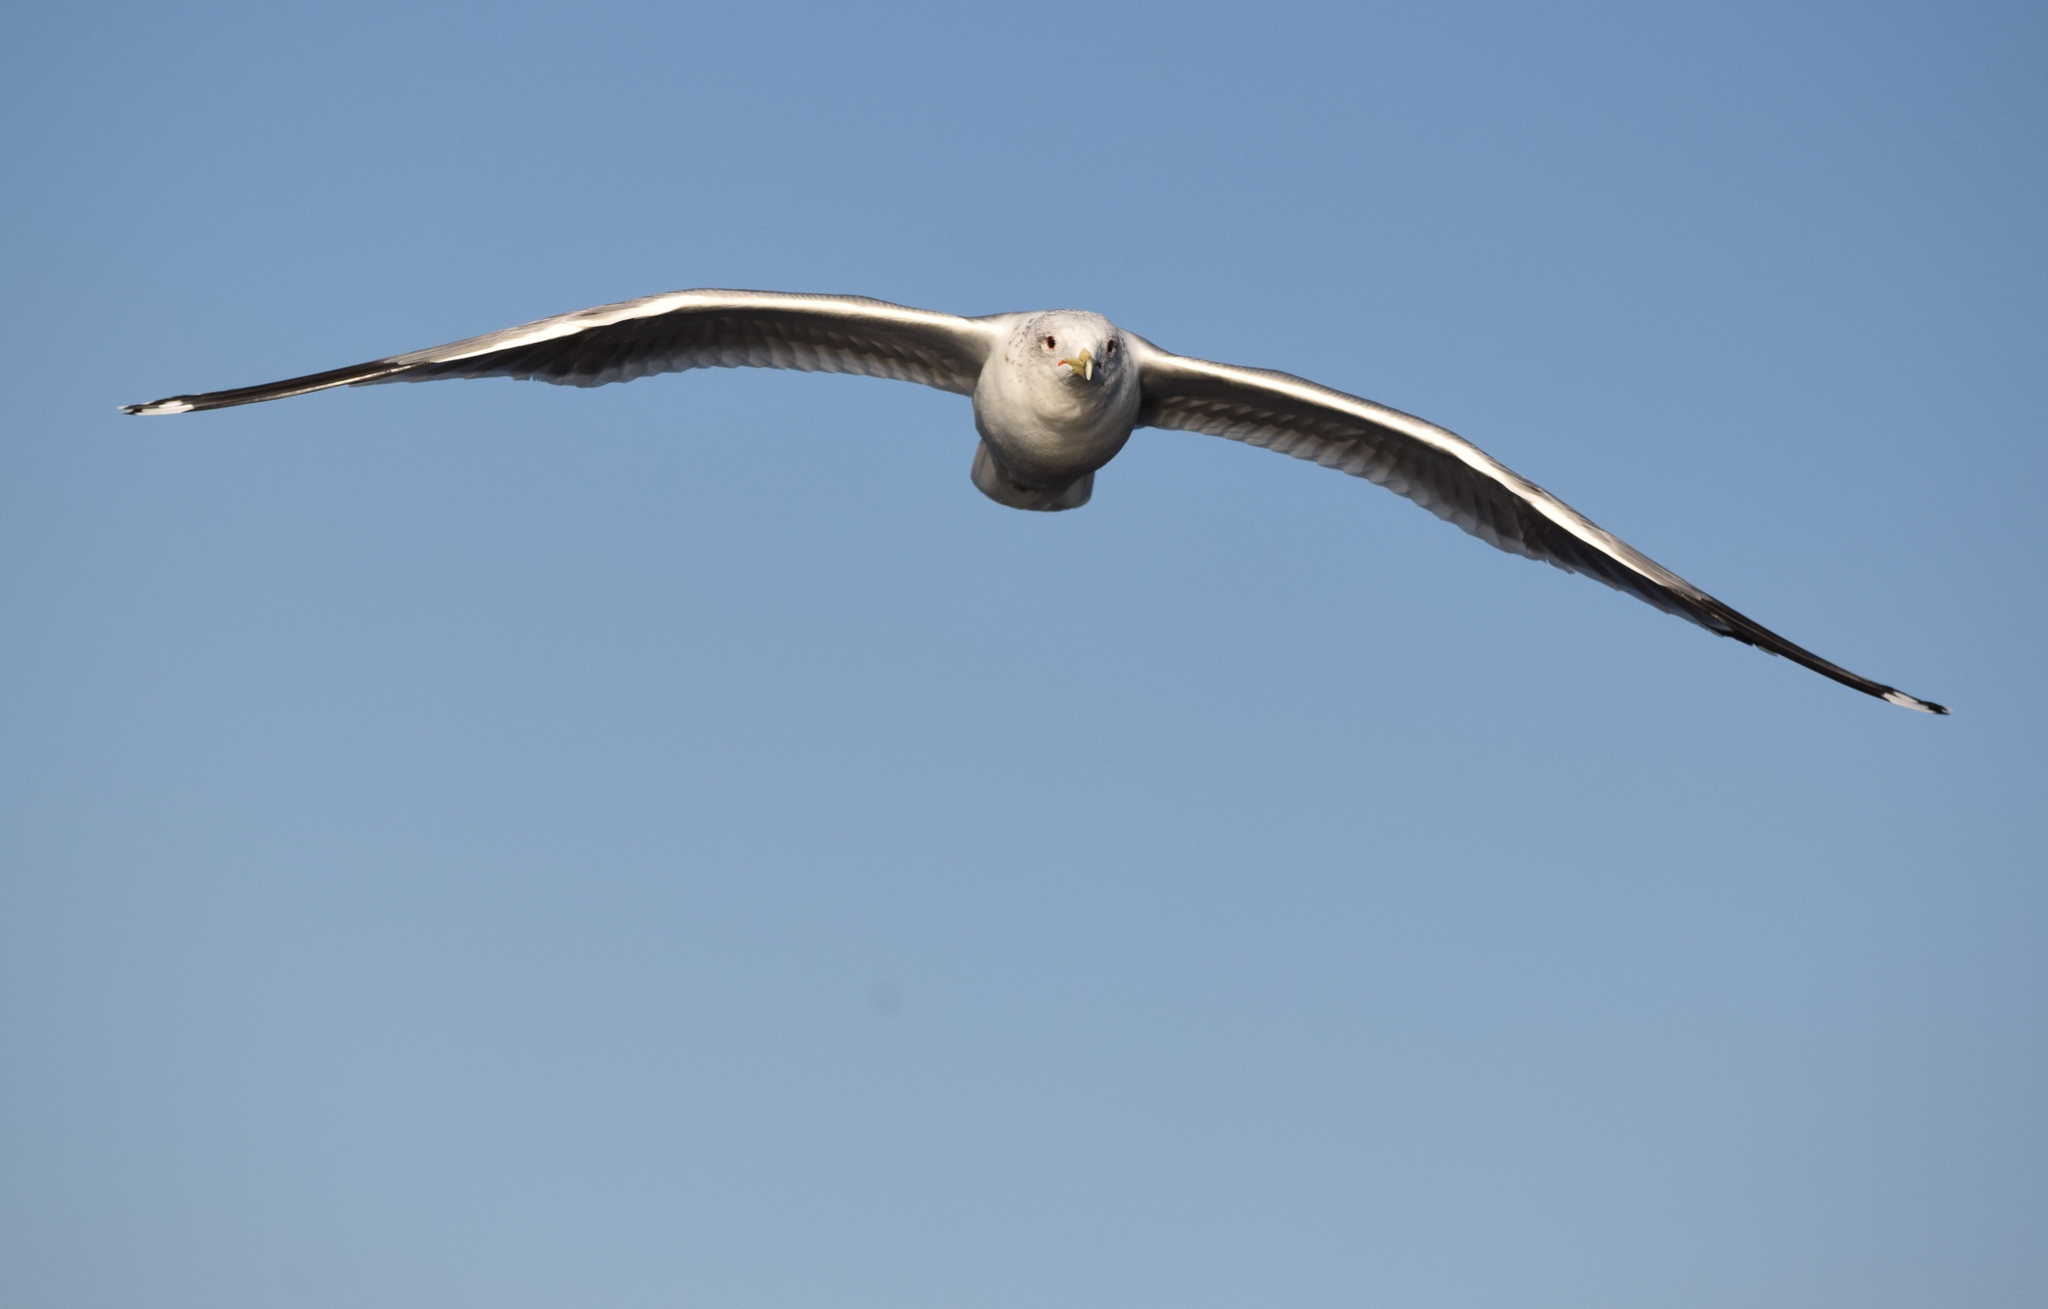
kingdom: Animalia
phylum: Chordata
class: Aves
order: Charadriiformes
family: Laridae
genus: Larus
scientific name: Larus californicus
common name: California gull
